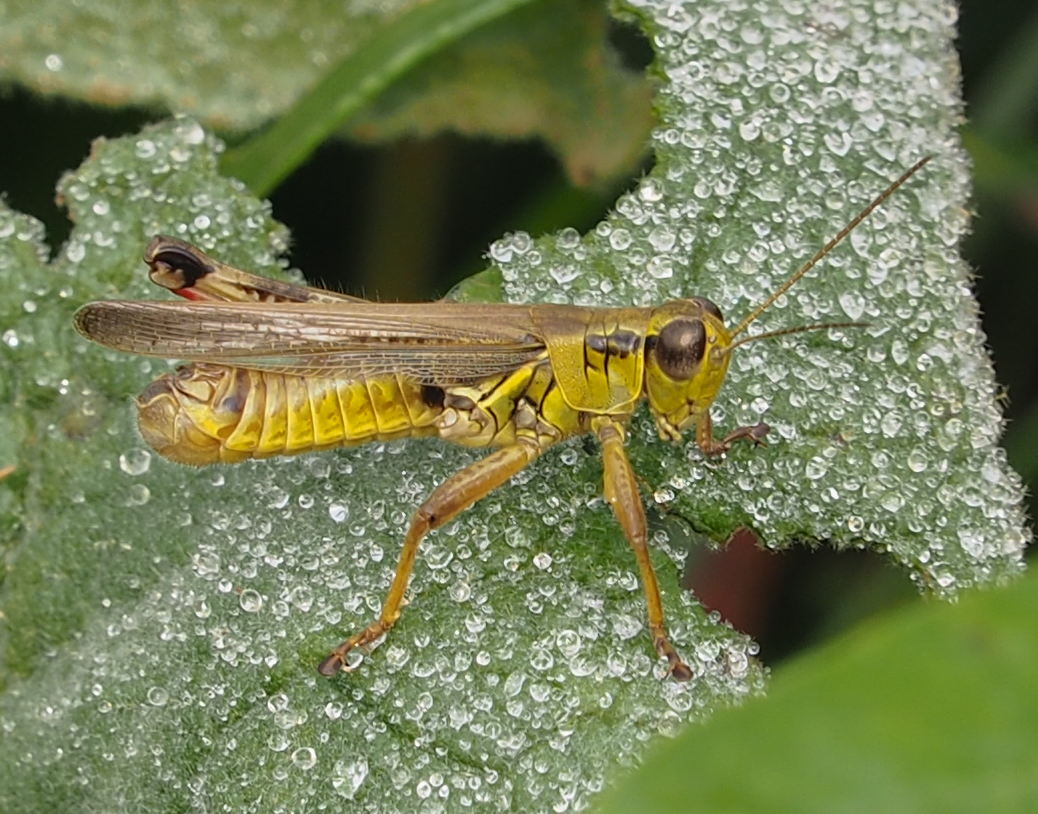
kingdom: Animalia
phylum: Arthropoda
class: Insecta
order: Orthoptera
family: Acrididae
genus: Melanoplus
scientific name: Melanoplus femurrubrum
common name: Red-legged grasshopper
